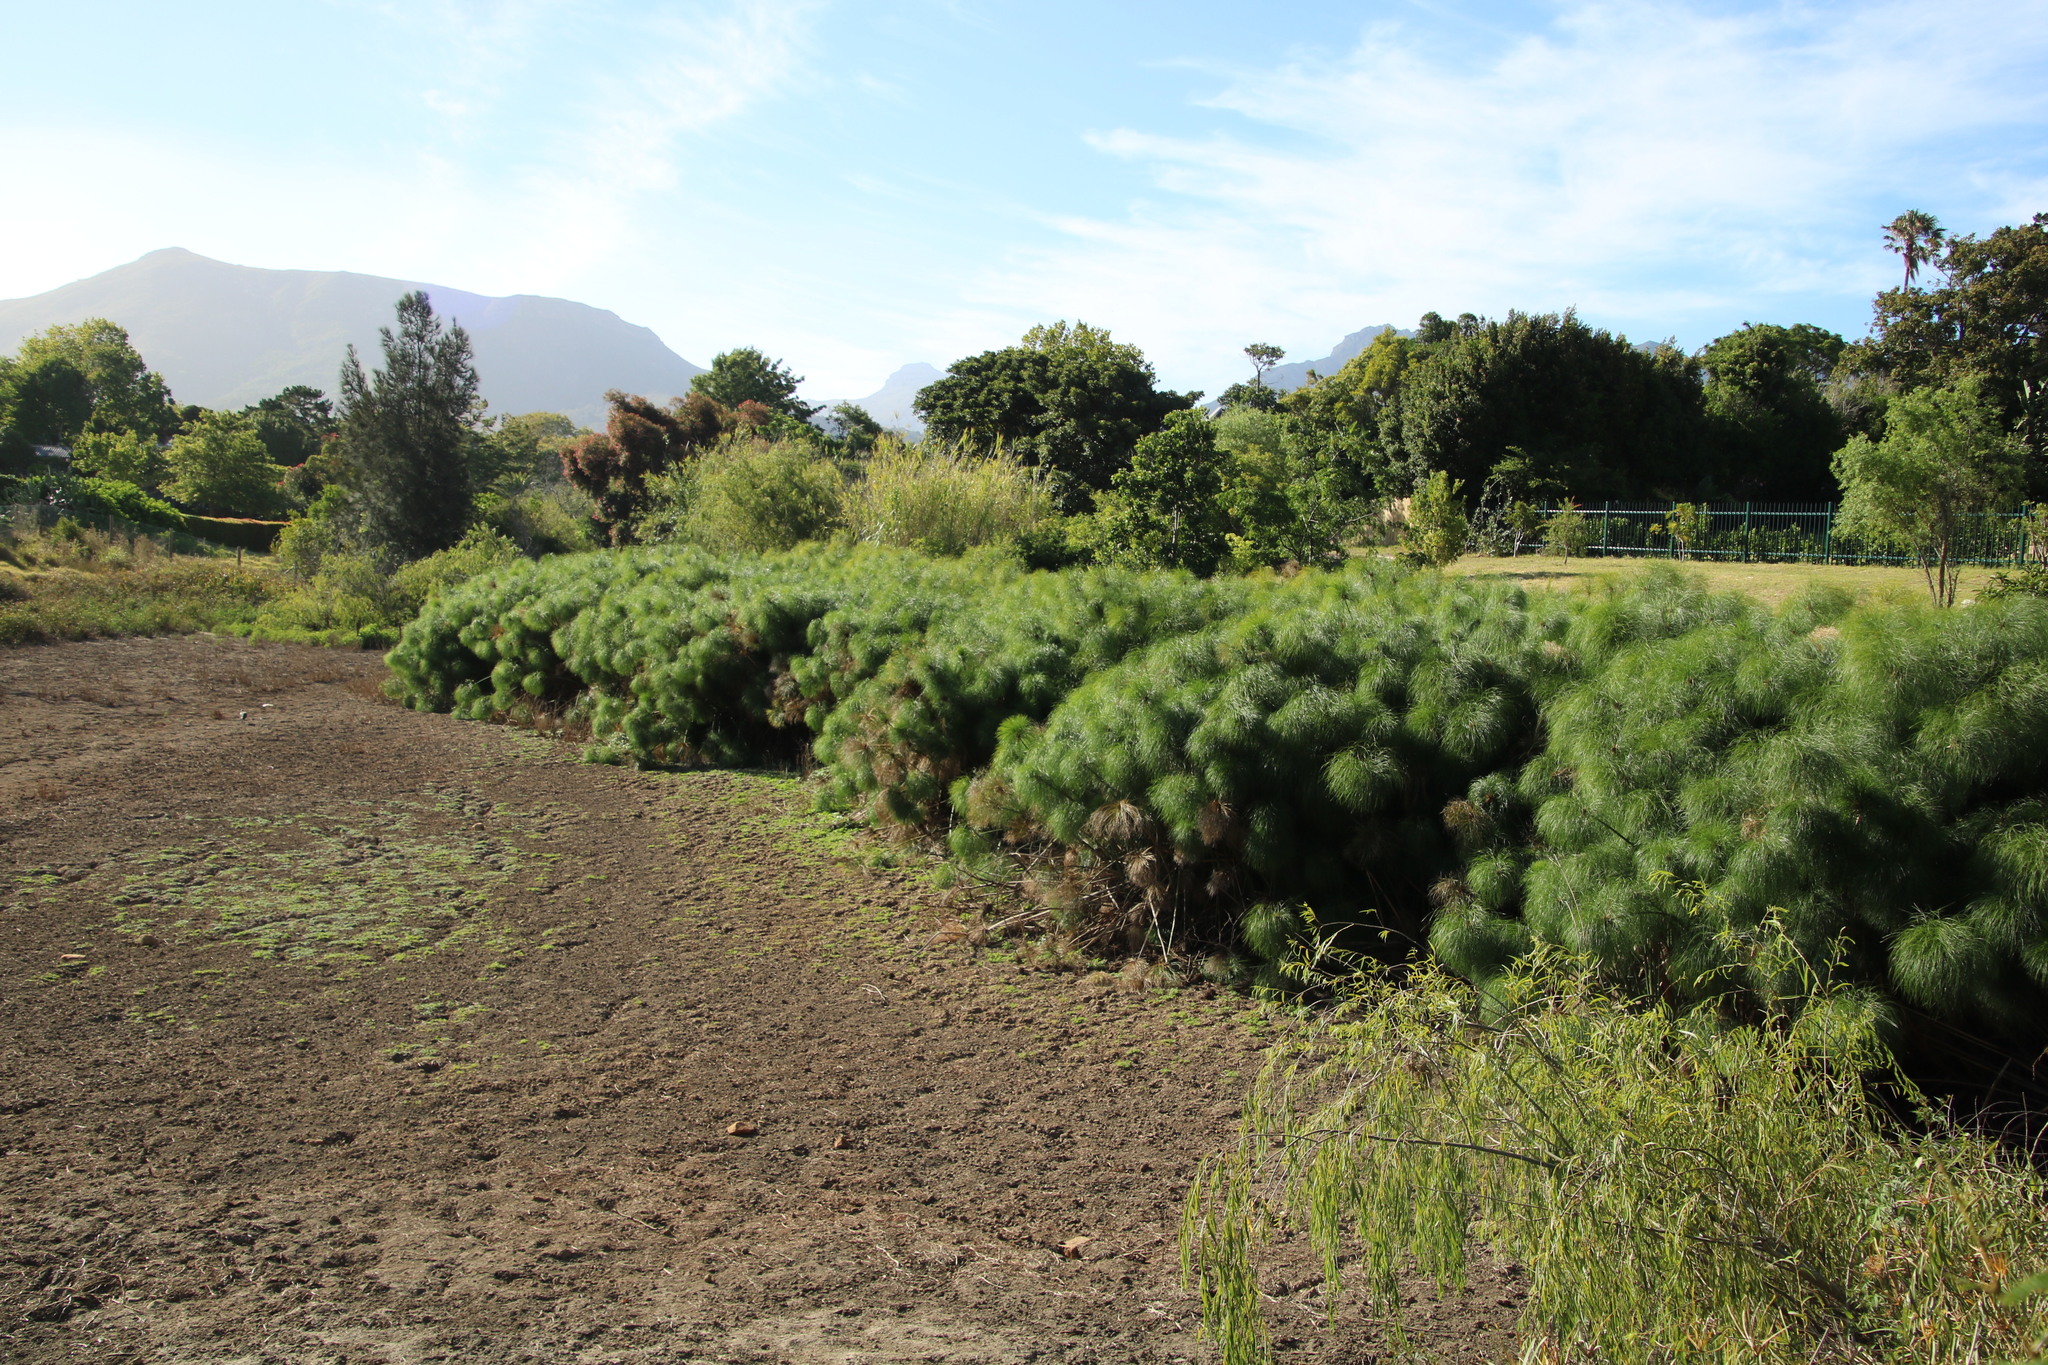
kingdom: Plantae
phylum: Tracheophyta
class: Liliopsida
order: Poales
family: Cyperaceae
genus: Cyperus
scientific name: Cyperus papyrus
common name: Papyrus
